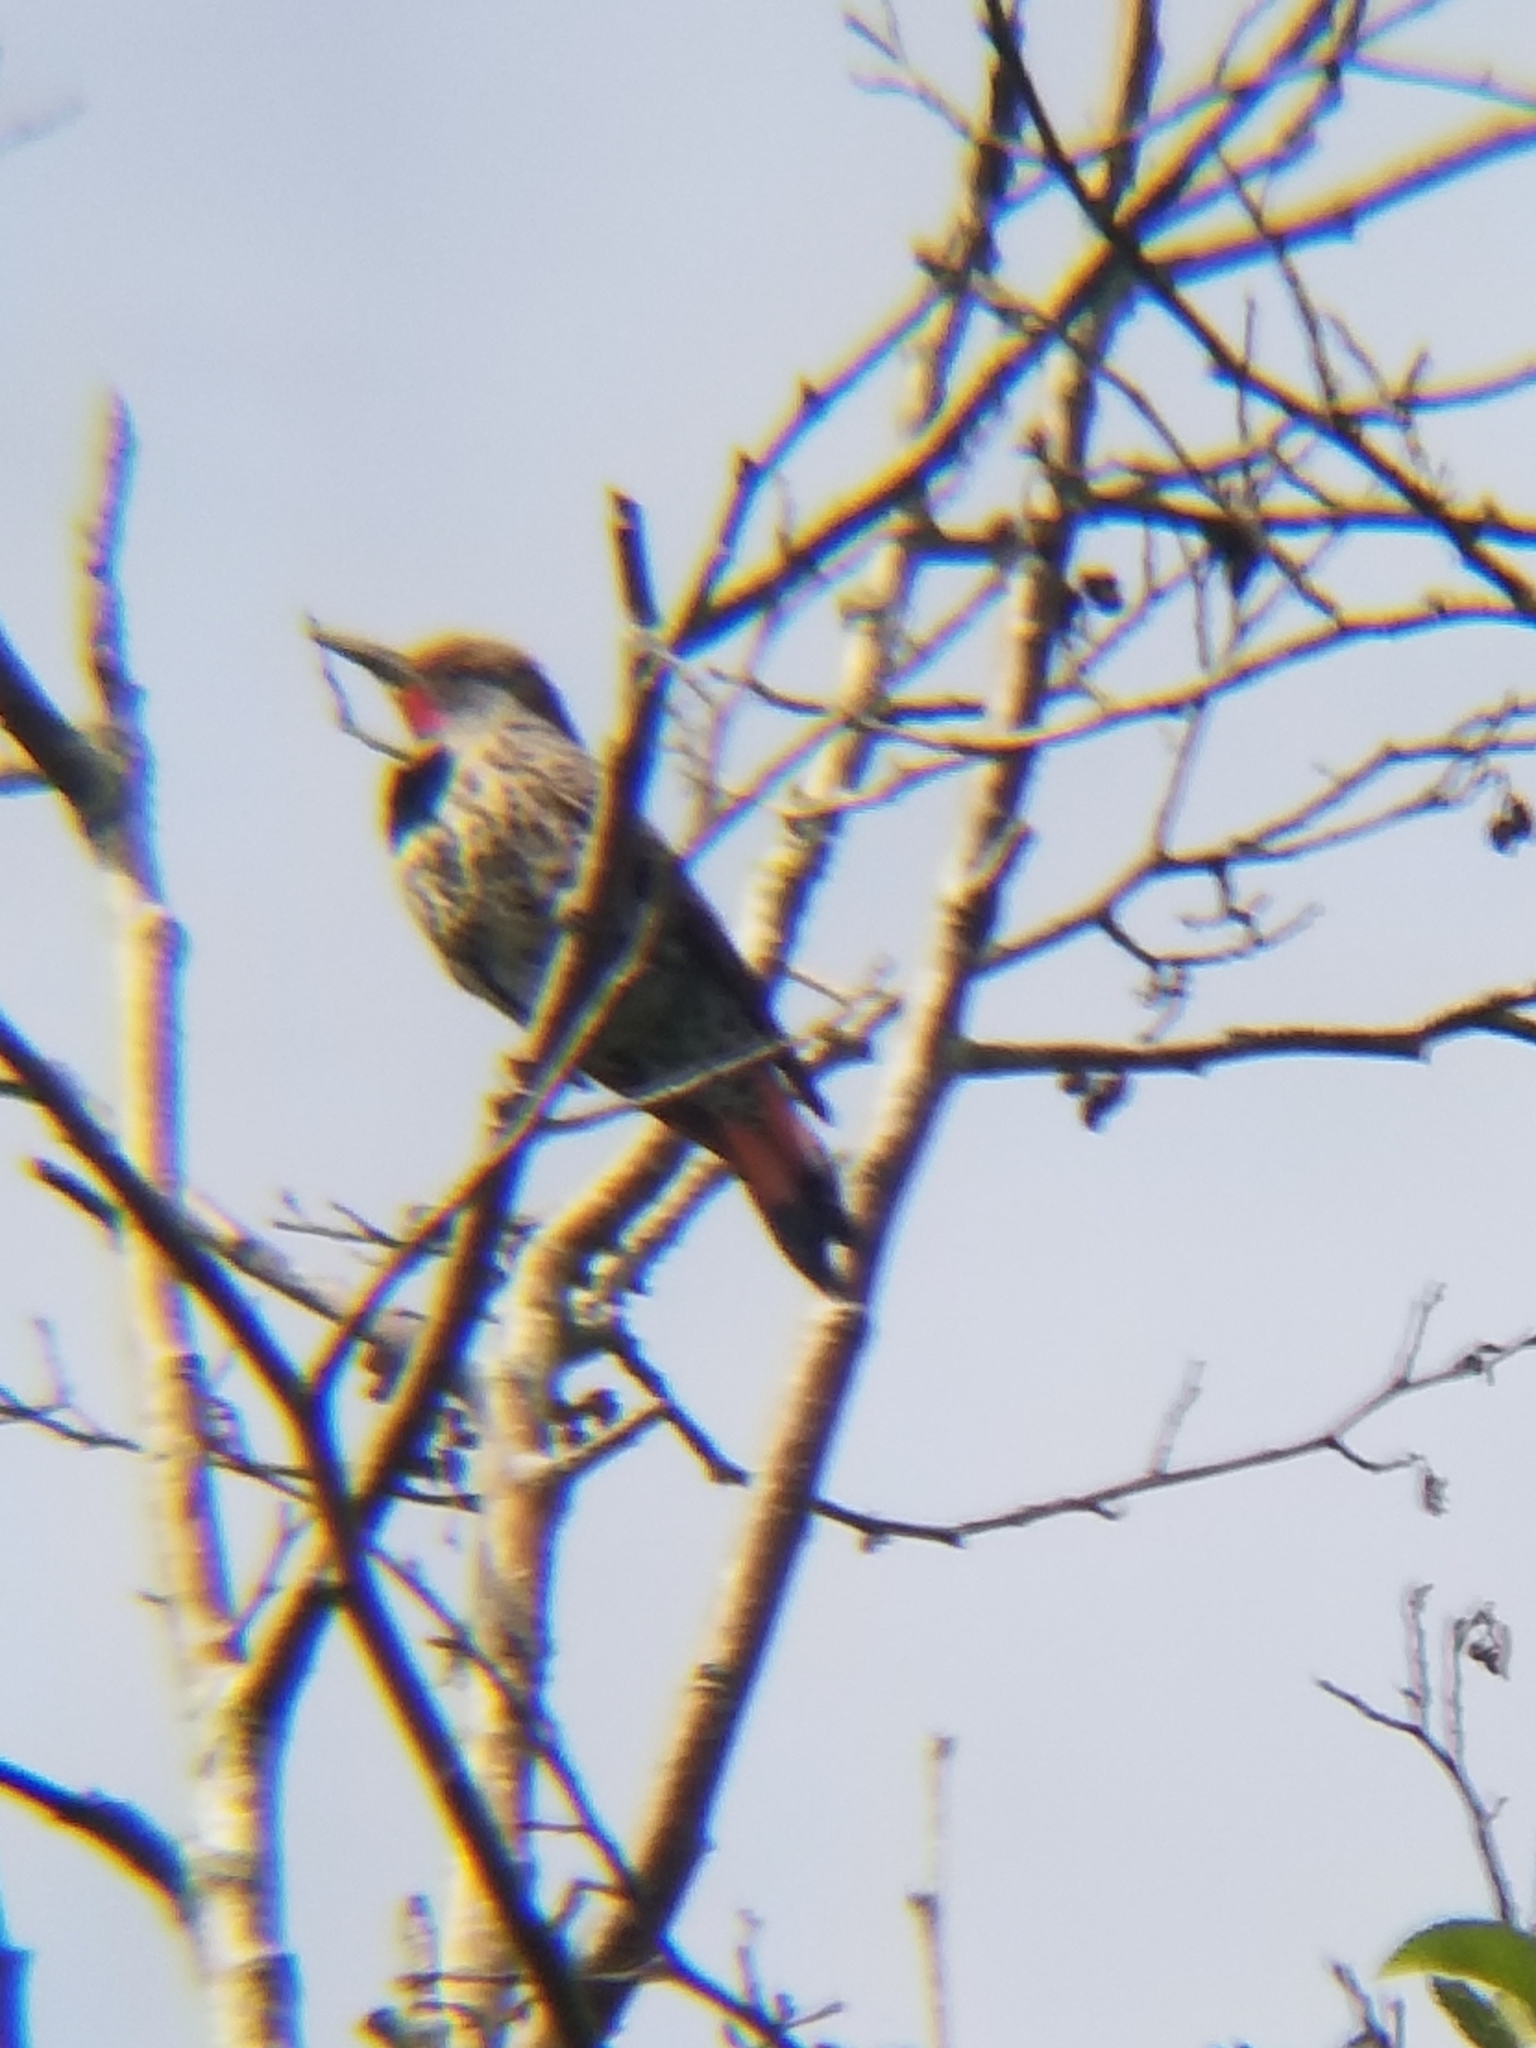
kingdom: Animalia
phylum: Chordata
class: Aves
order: Piciformes
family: Picidae
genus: Colaptes
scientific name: Colaptes auratus
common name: Northern flicker
